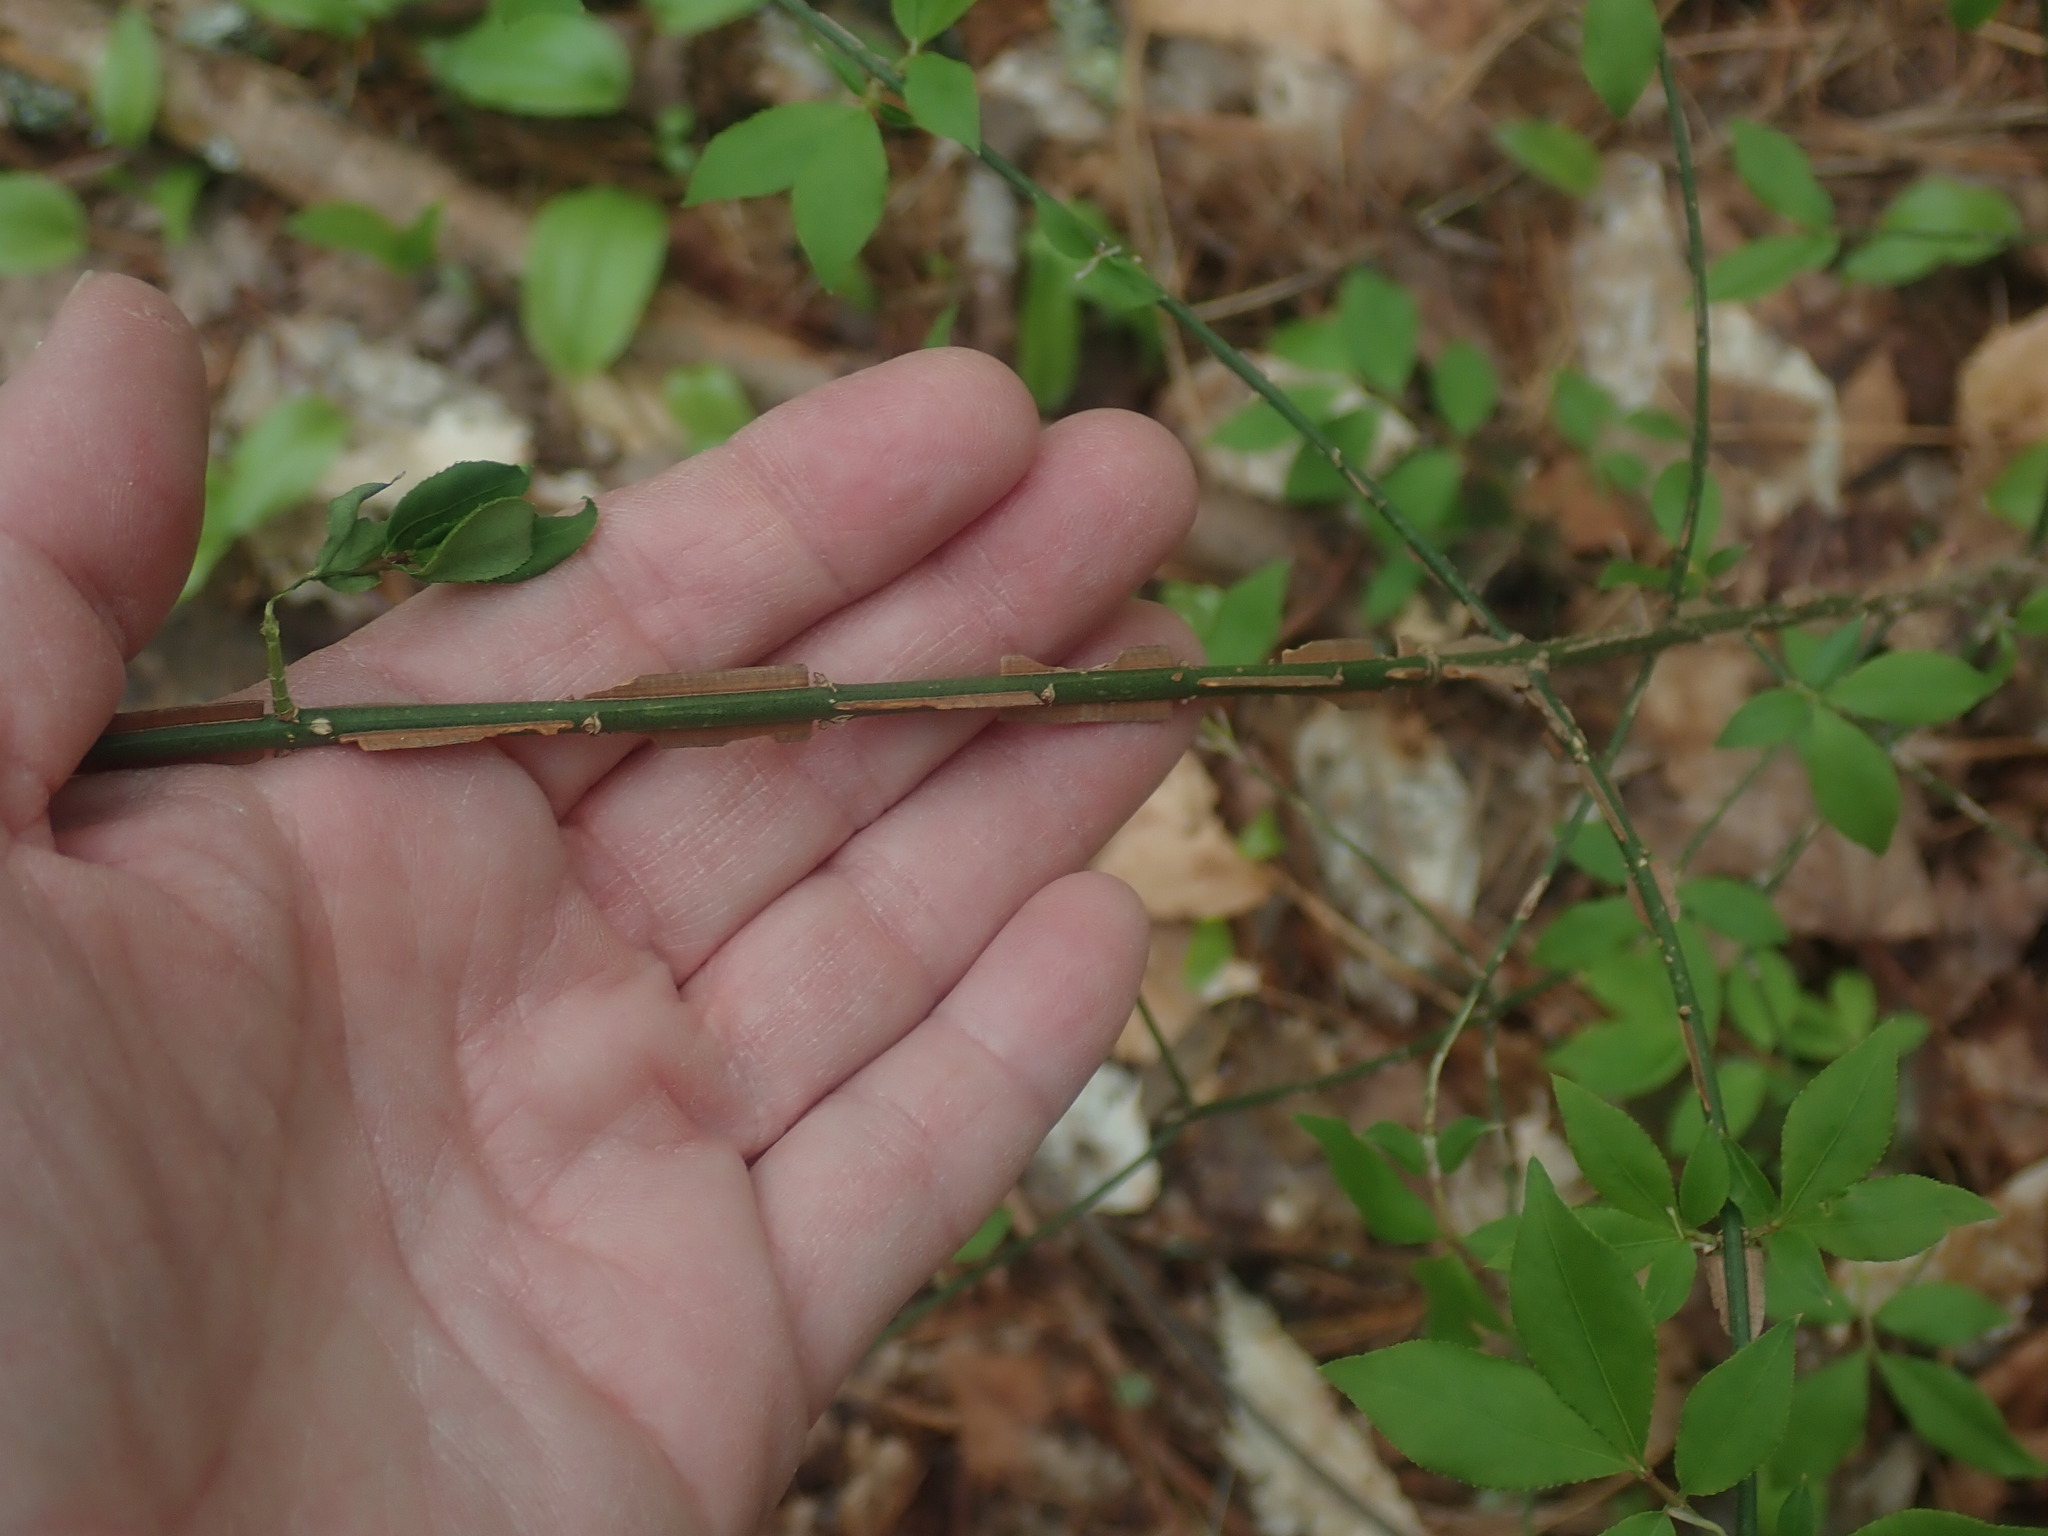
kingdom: Plantae
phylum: Tracheophyta
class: Magnoliopsida
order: Celastrales
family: Celastraceae
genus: Euonymus
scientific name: Euonymus alatus
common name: Winged euonymus
